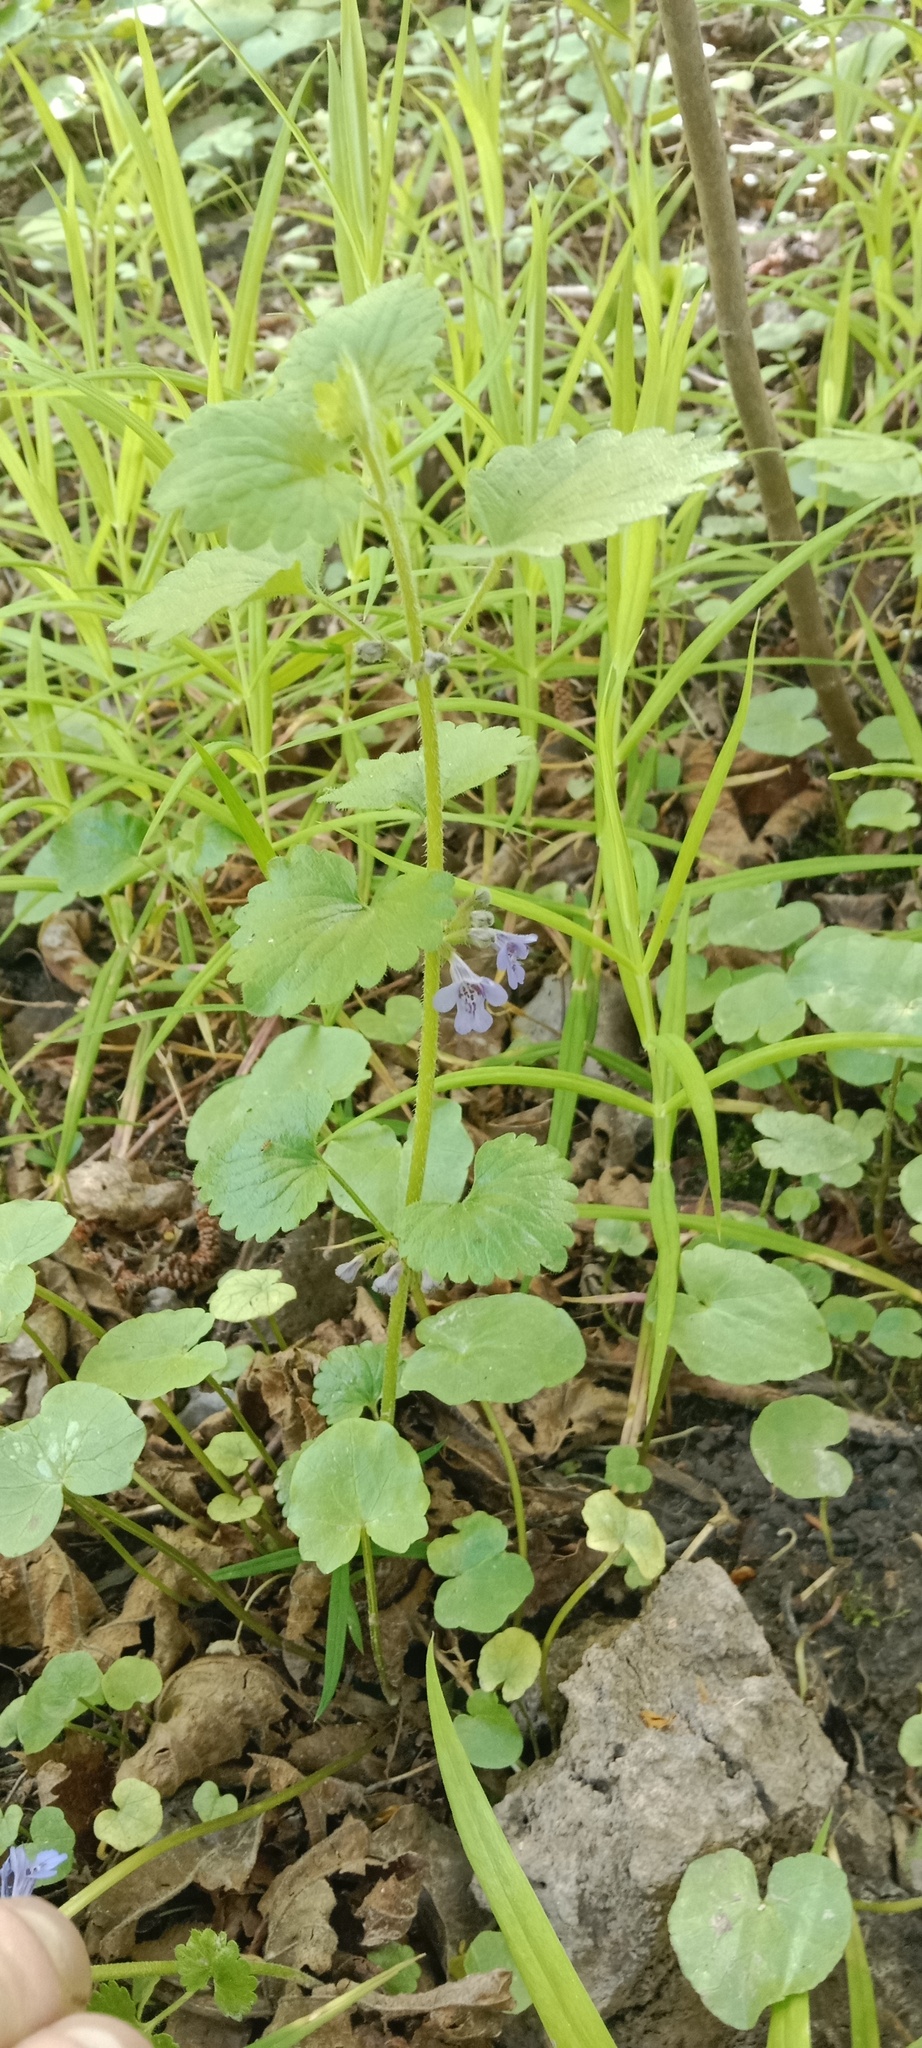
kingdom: Plantae
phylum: Tracheophyta
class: Magnoliopsida
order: Lamiales
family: Lamiaceae
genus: Glechoma
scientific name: Glechoma hederacea
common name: Ground ivy
